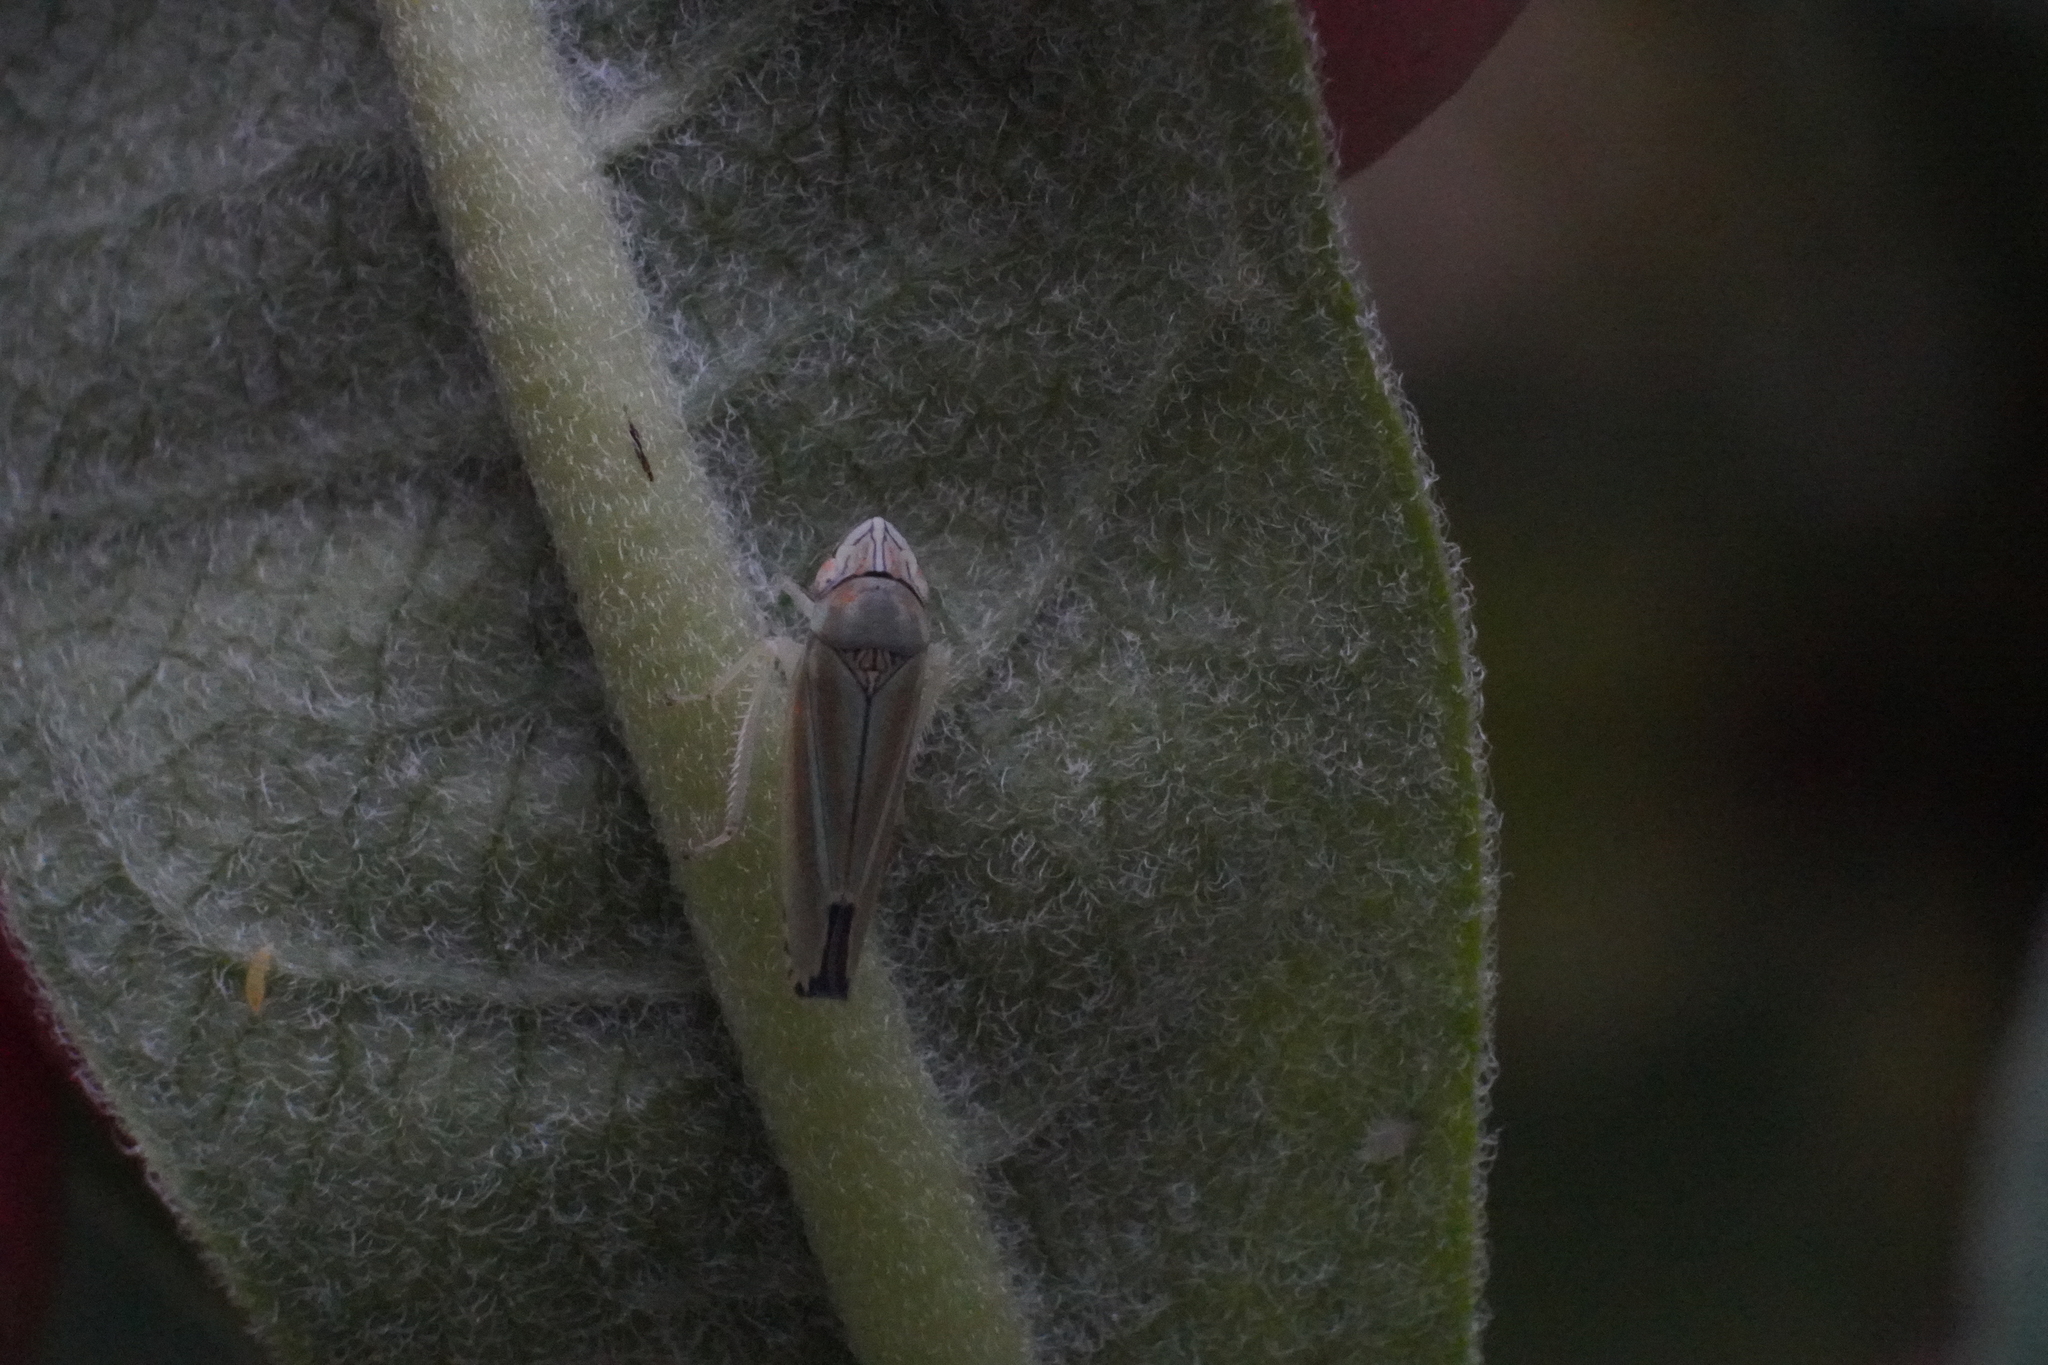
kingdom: Animalia
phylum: Arthropoda
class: Insecta
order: Hemiptera
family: Cicadellidae
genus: Graphocephala
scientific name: Graphocephala versuta
